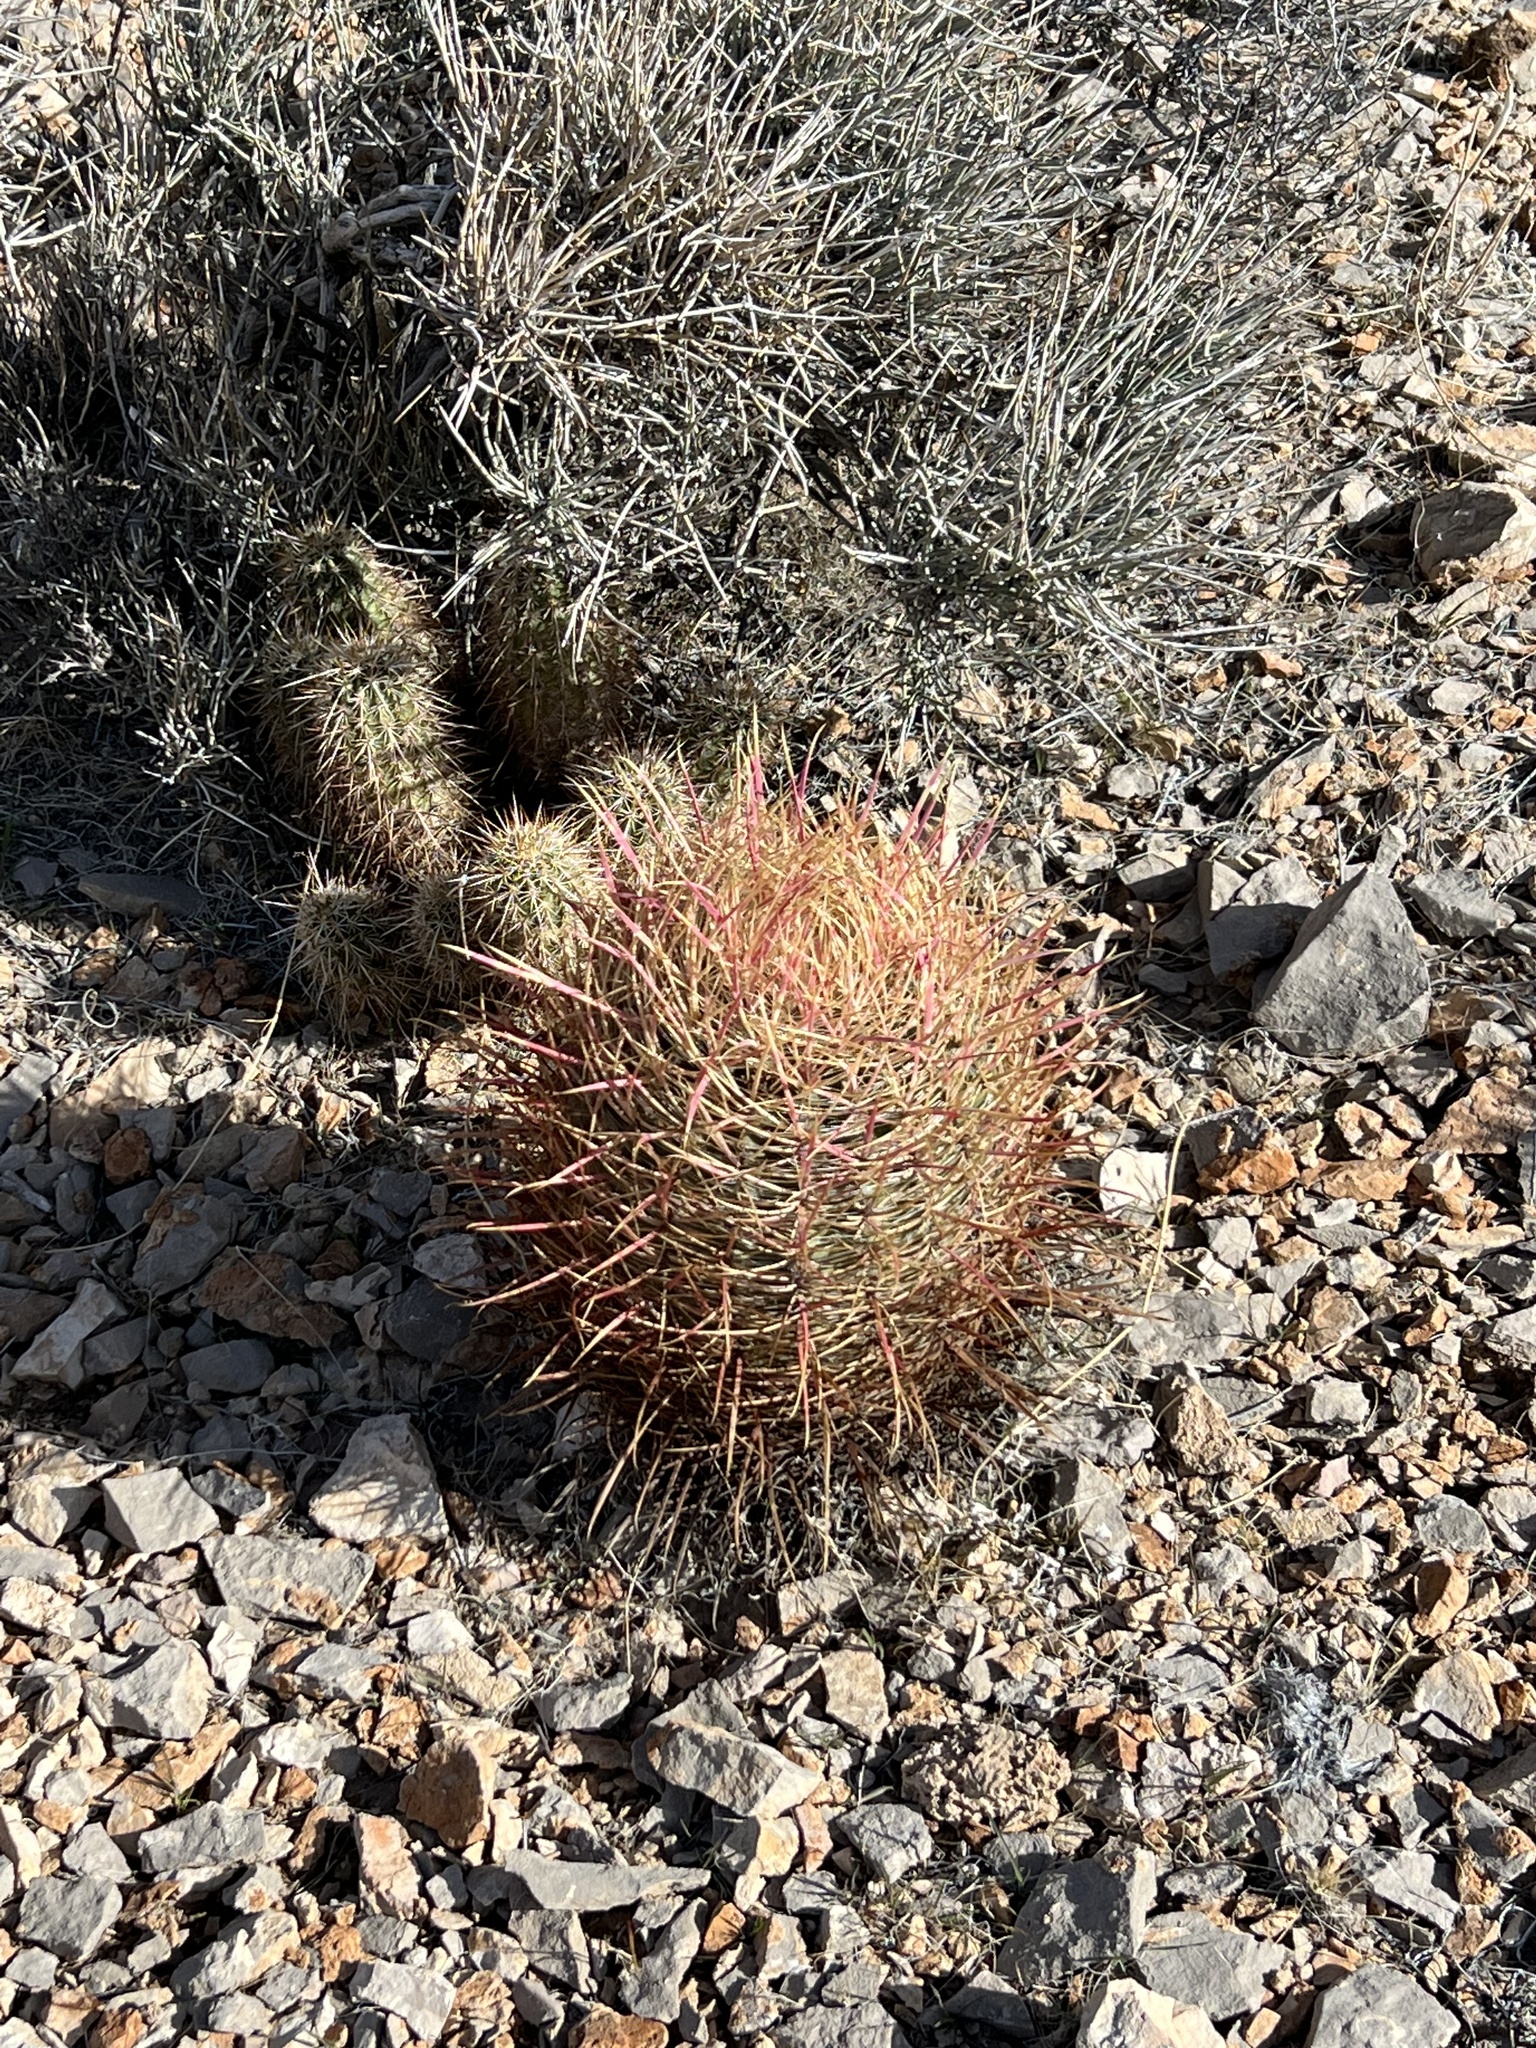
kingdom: Plantae
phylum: Tracheophyta
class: Magnoliopsida
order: Caryophyllales
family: Cactaceae
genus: Ferocactus
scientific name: Ferocactus cylindraceus
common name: California barrel cactus
